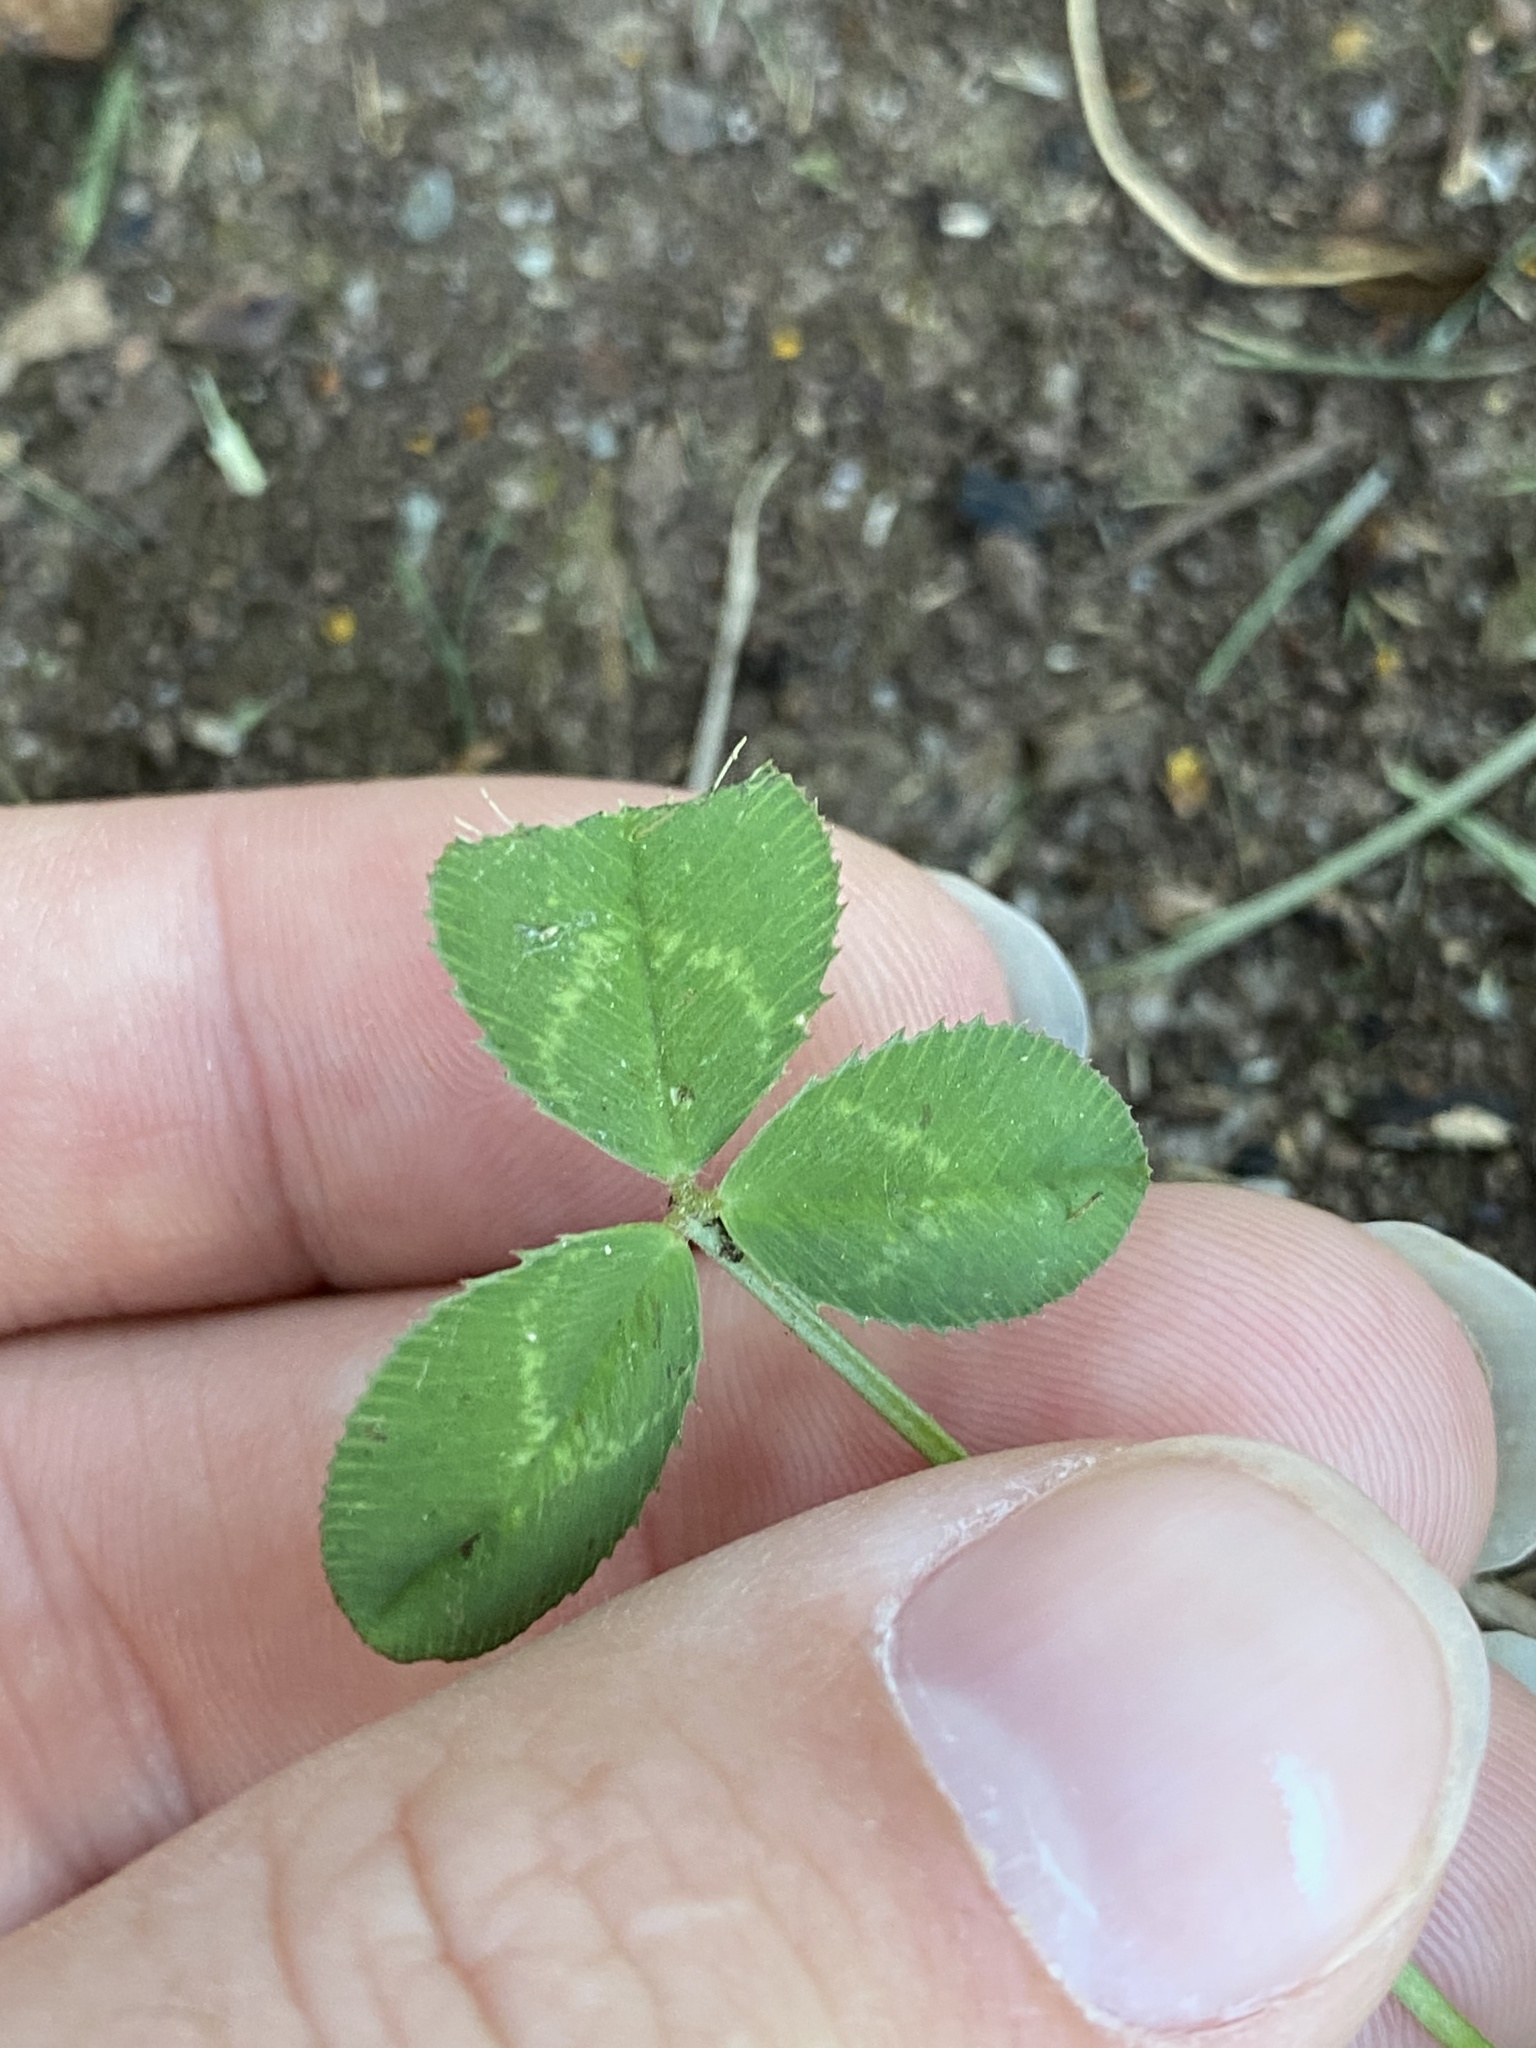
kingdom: Plantae
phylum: Tracheophyta
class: Magnoliopsida
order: Fabales
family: Fabaceae
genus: Trifolium
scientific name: Trifolium repens
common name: White clover
